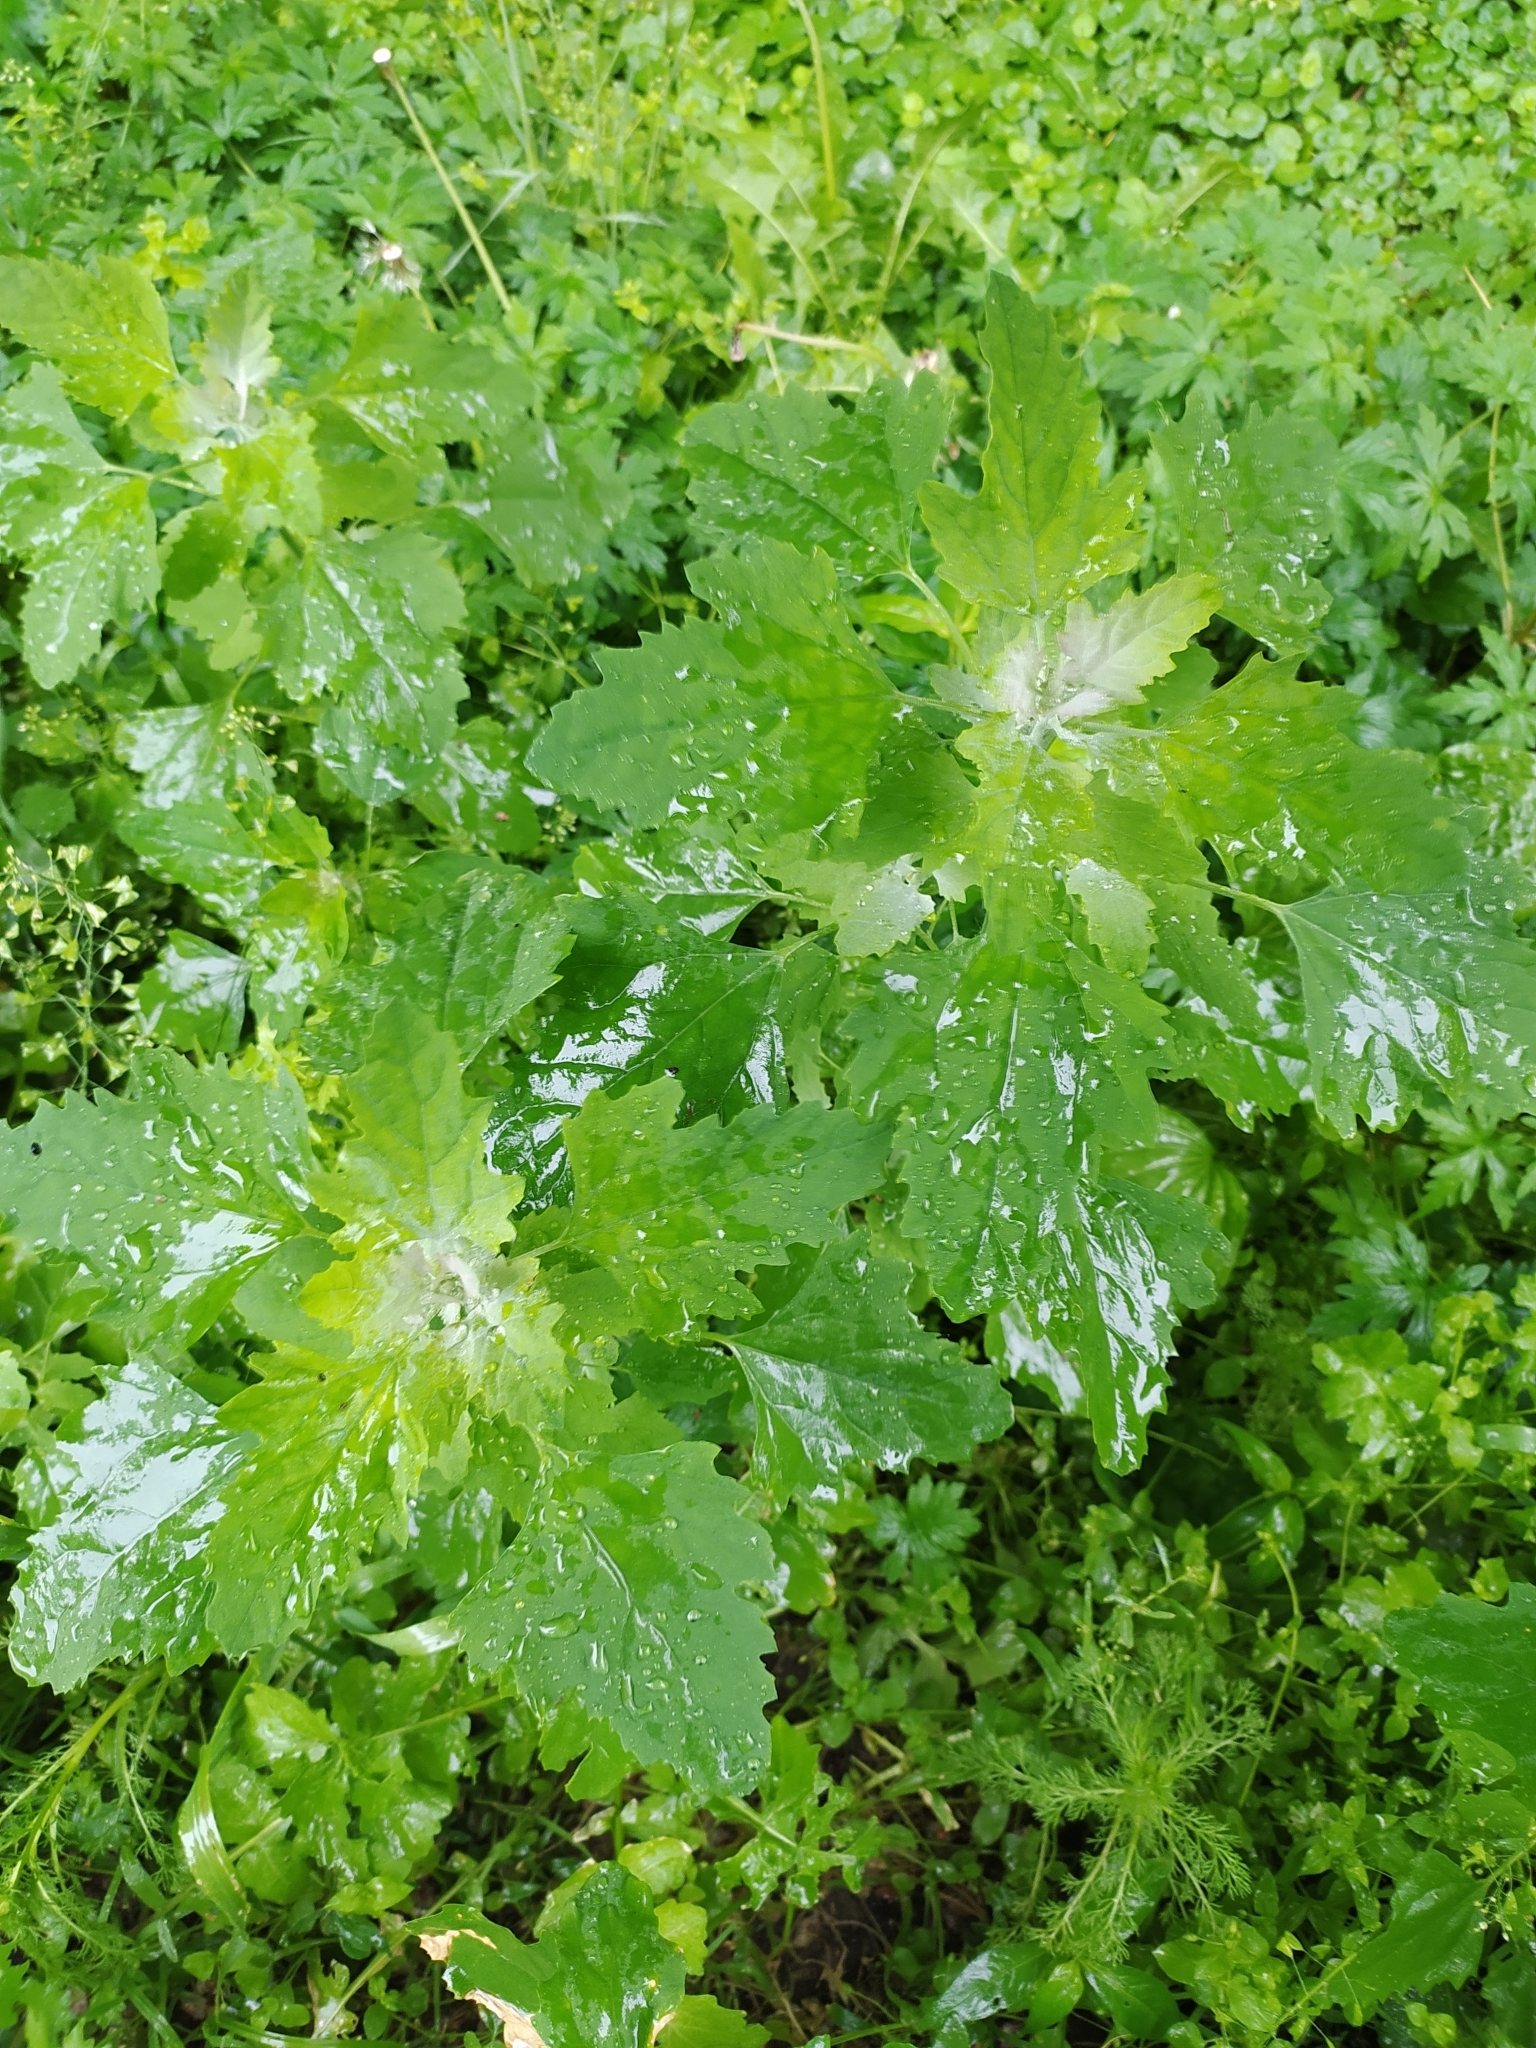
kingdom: Plantae
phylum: Tracheophyta
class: Magnoliopsida
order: Caryophyllales
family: Amaranthaceae
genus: Chenopodium
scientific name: Chenopodium album
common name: Fat-hen
